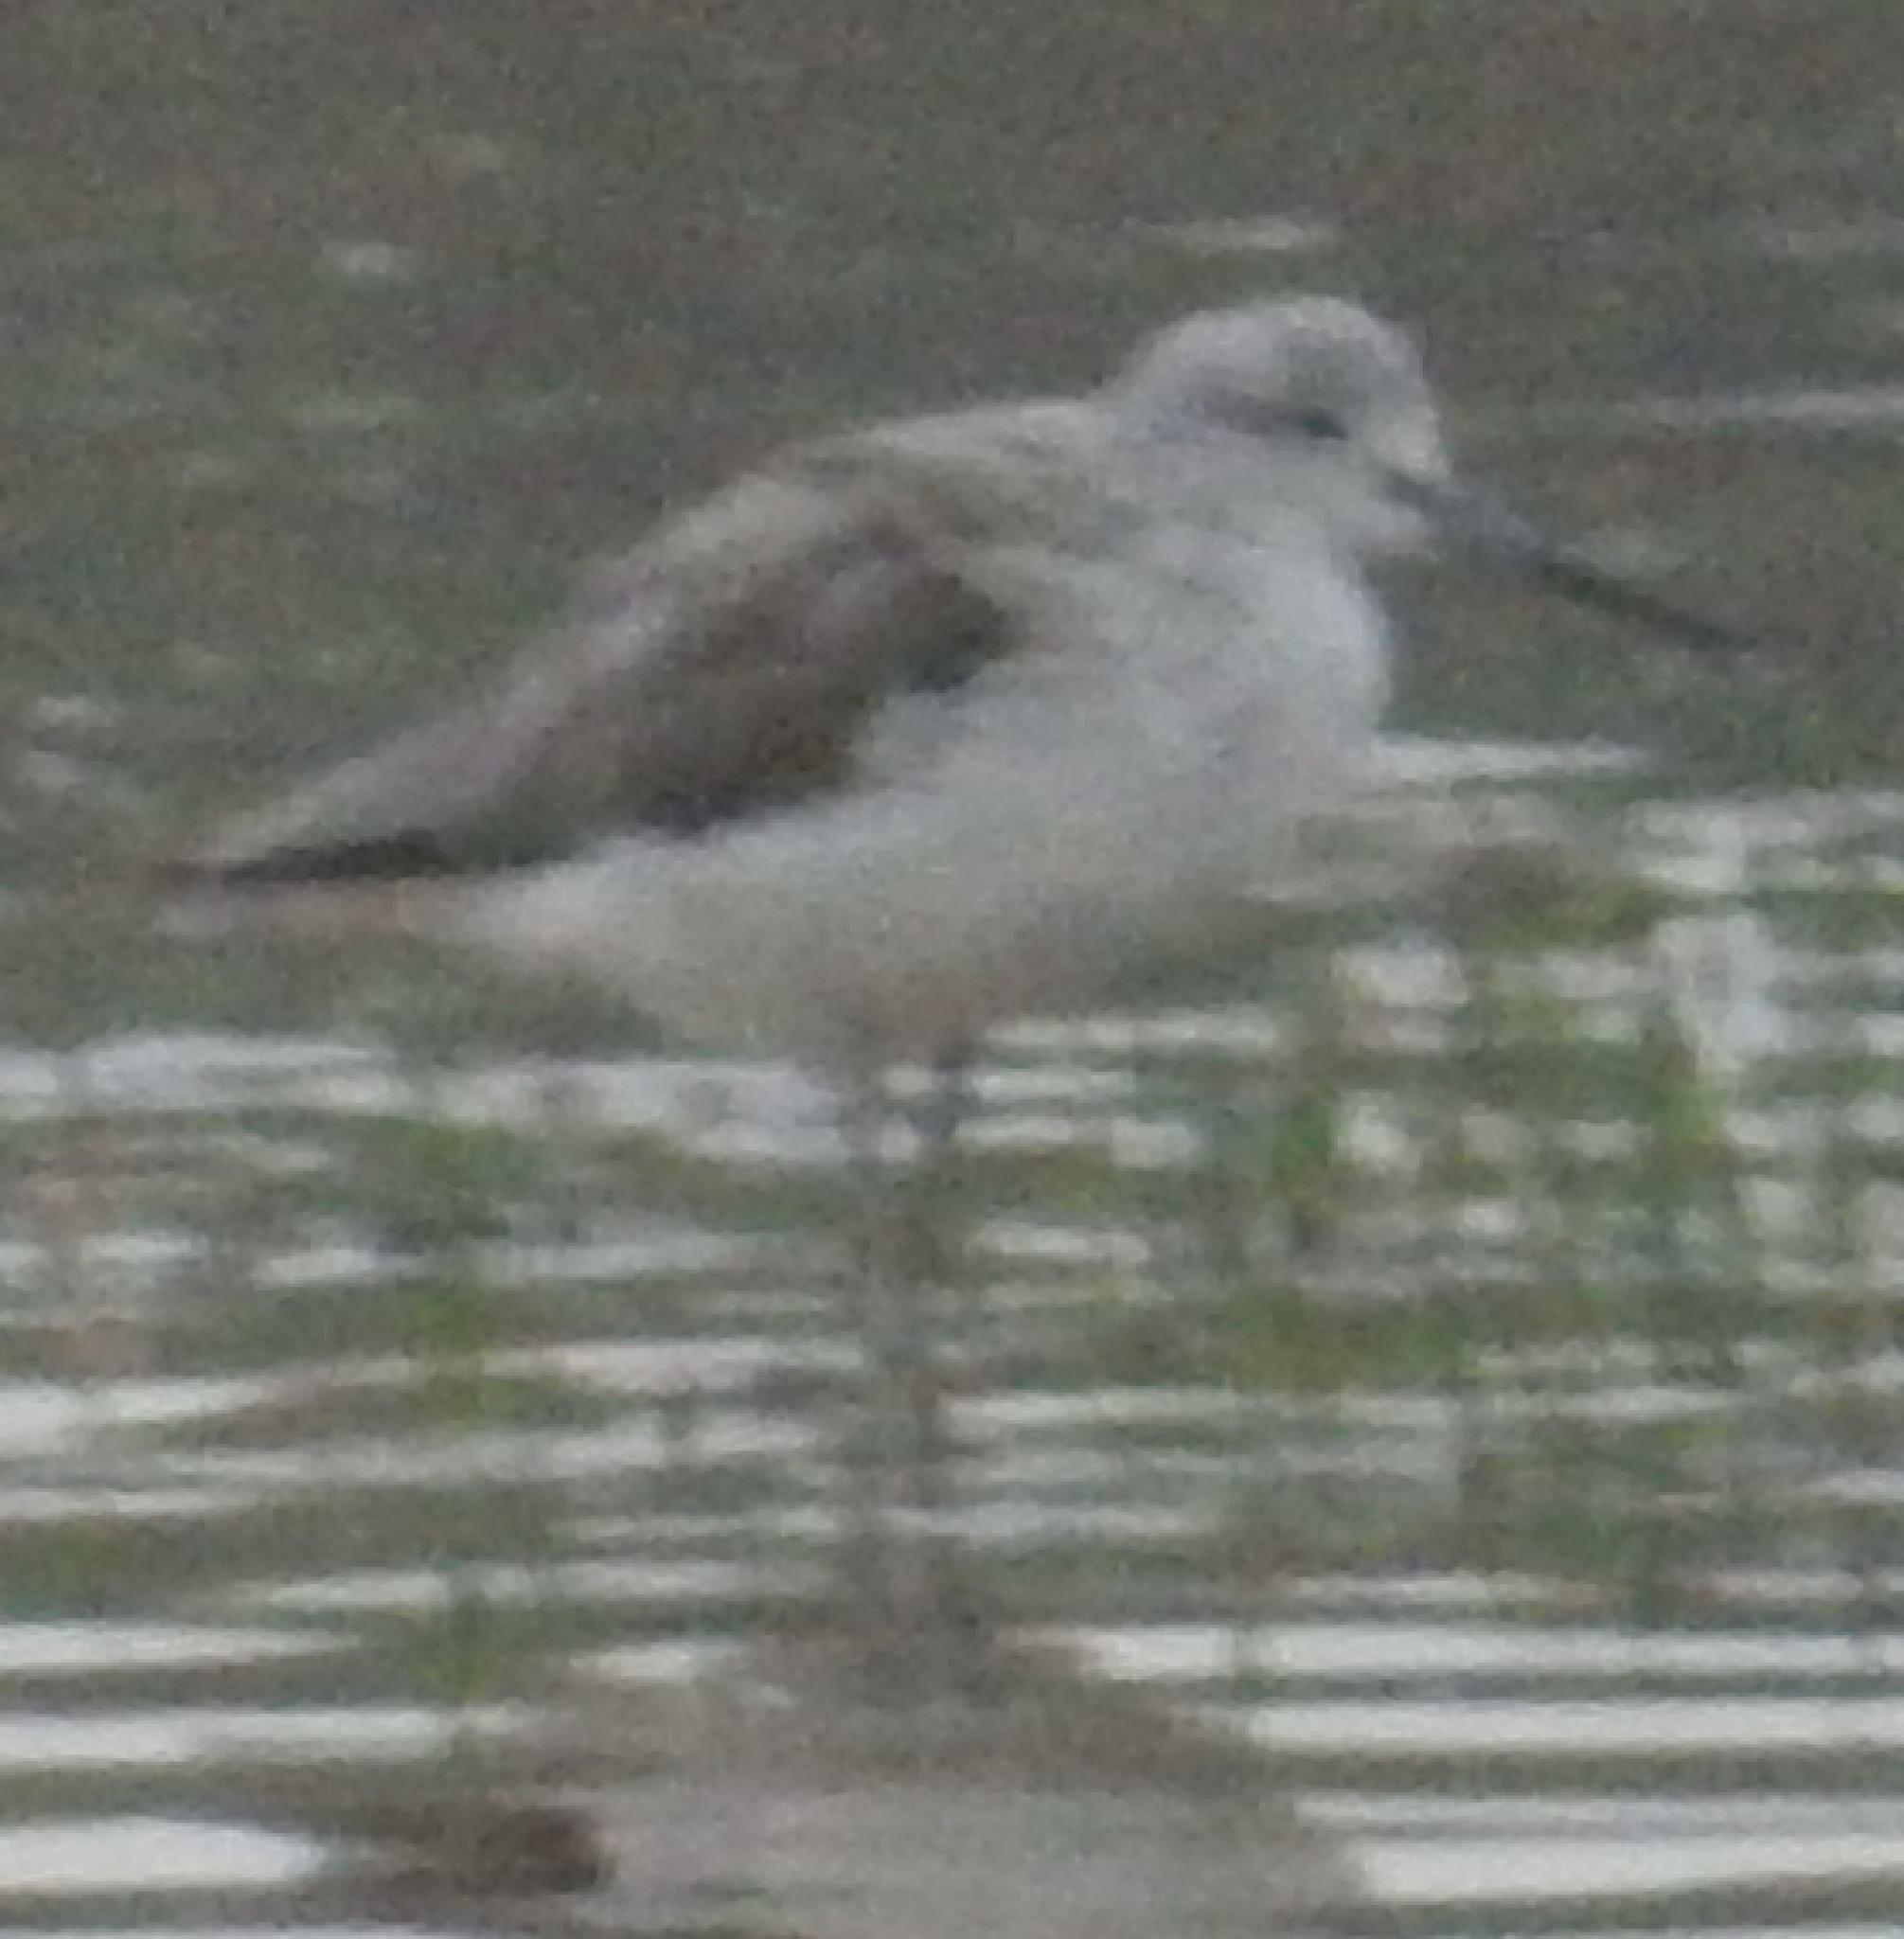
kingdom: Animalia
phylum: Chordata
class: Aves
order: Charadriiformes
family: Scolopacidae
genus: Tringa
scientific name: Tringa nebularia
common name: Common greenshank
